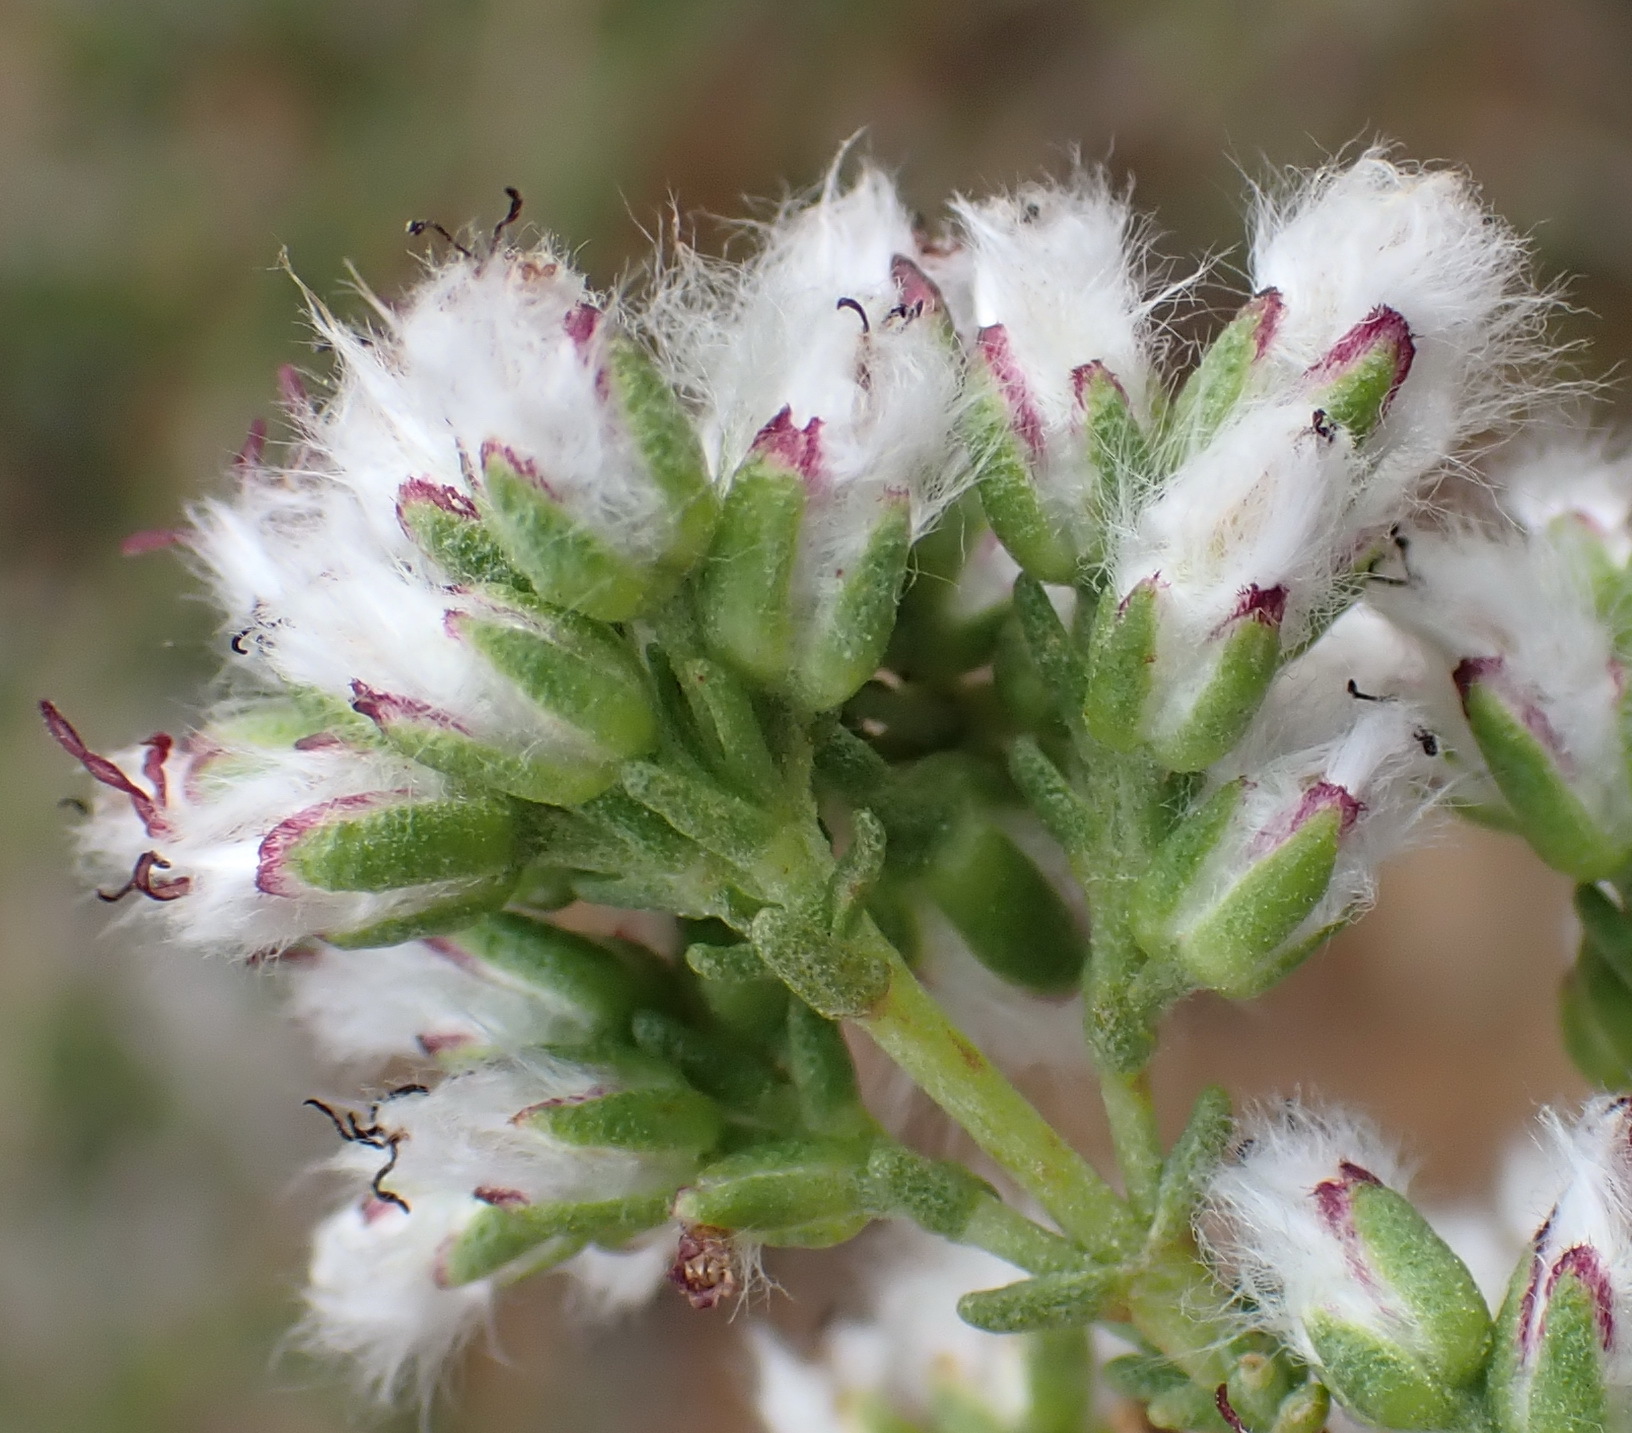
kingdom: Plantae
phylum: Tracheophyta
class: Magnoliopsida
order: Asterales
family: Asteraceae
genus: Eriocephalus
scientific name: Eriocephalus ericoides
